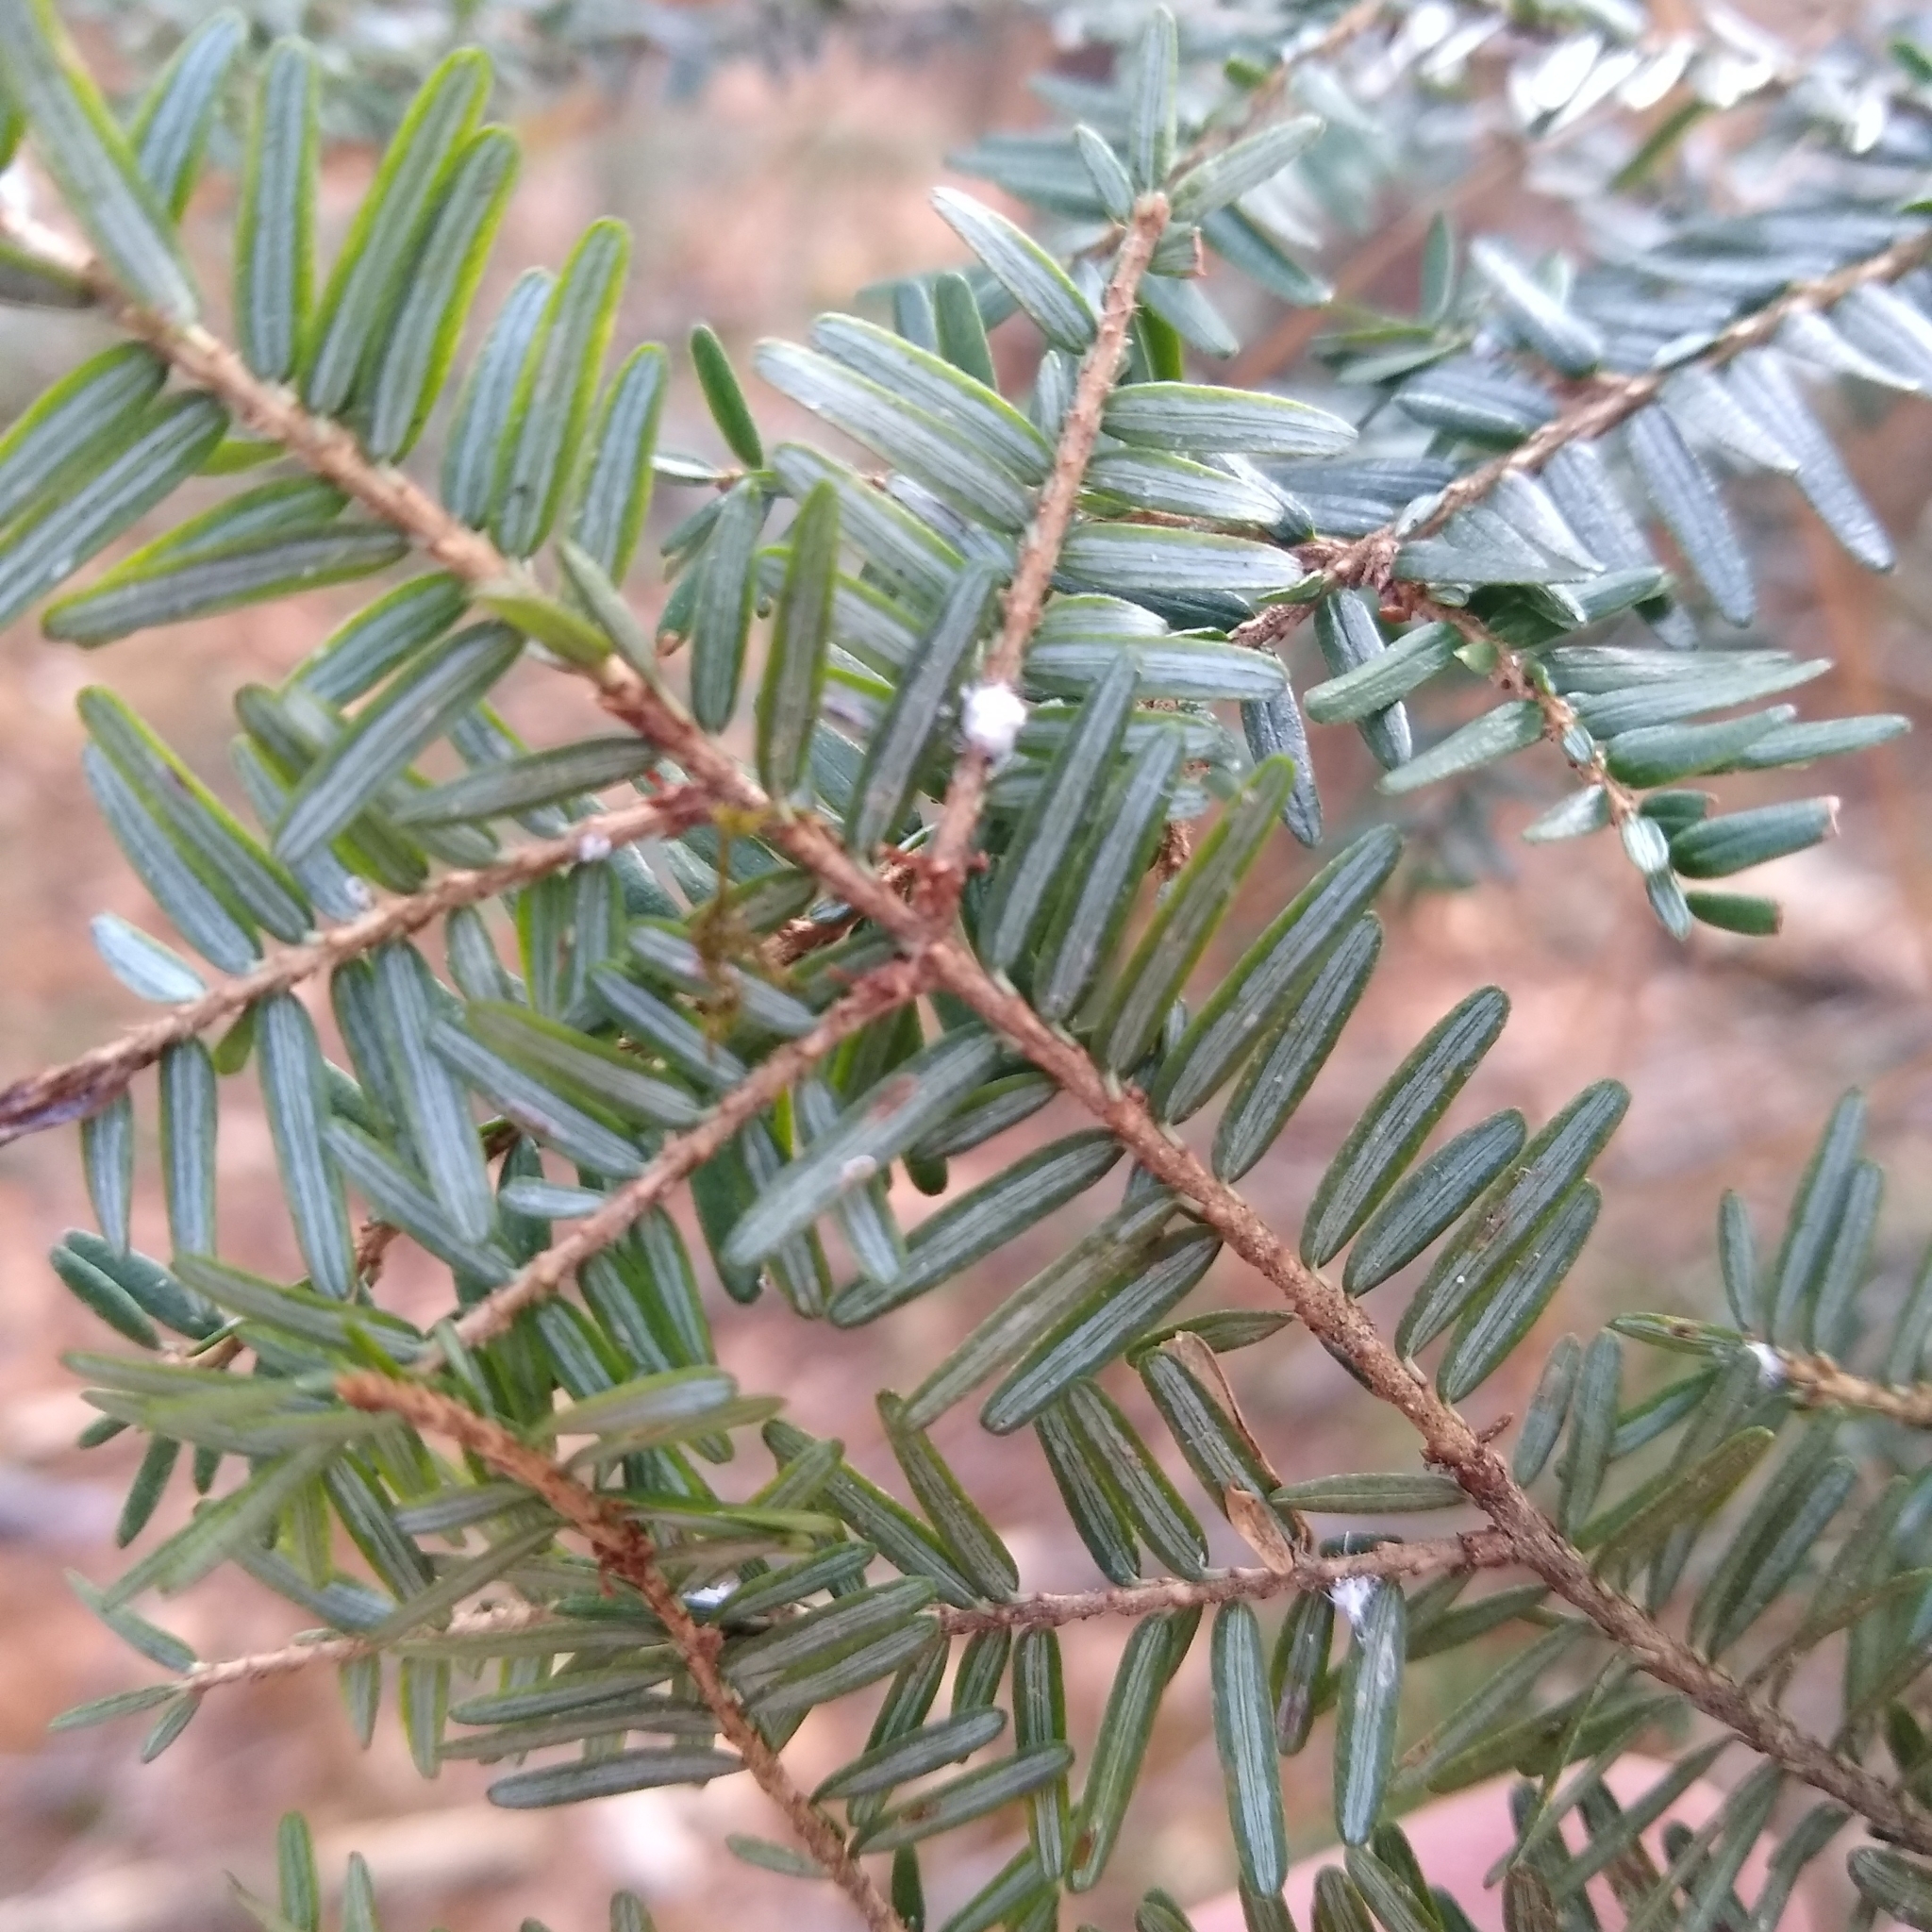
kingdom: Animalia
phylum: Arthropoda
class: Insecta
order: Hemiptera
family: Adelgidae
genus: Adelges
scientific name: Adelges tsugae
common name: Hemlock woolly adelgid
